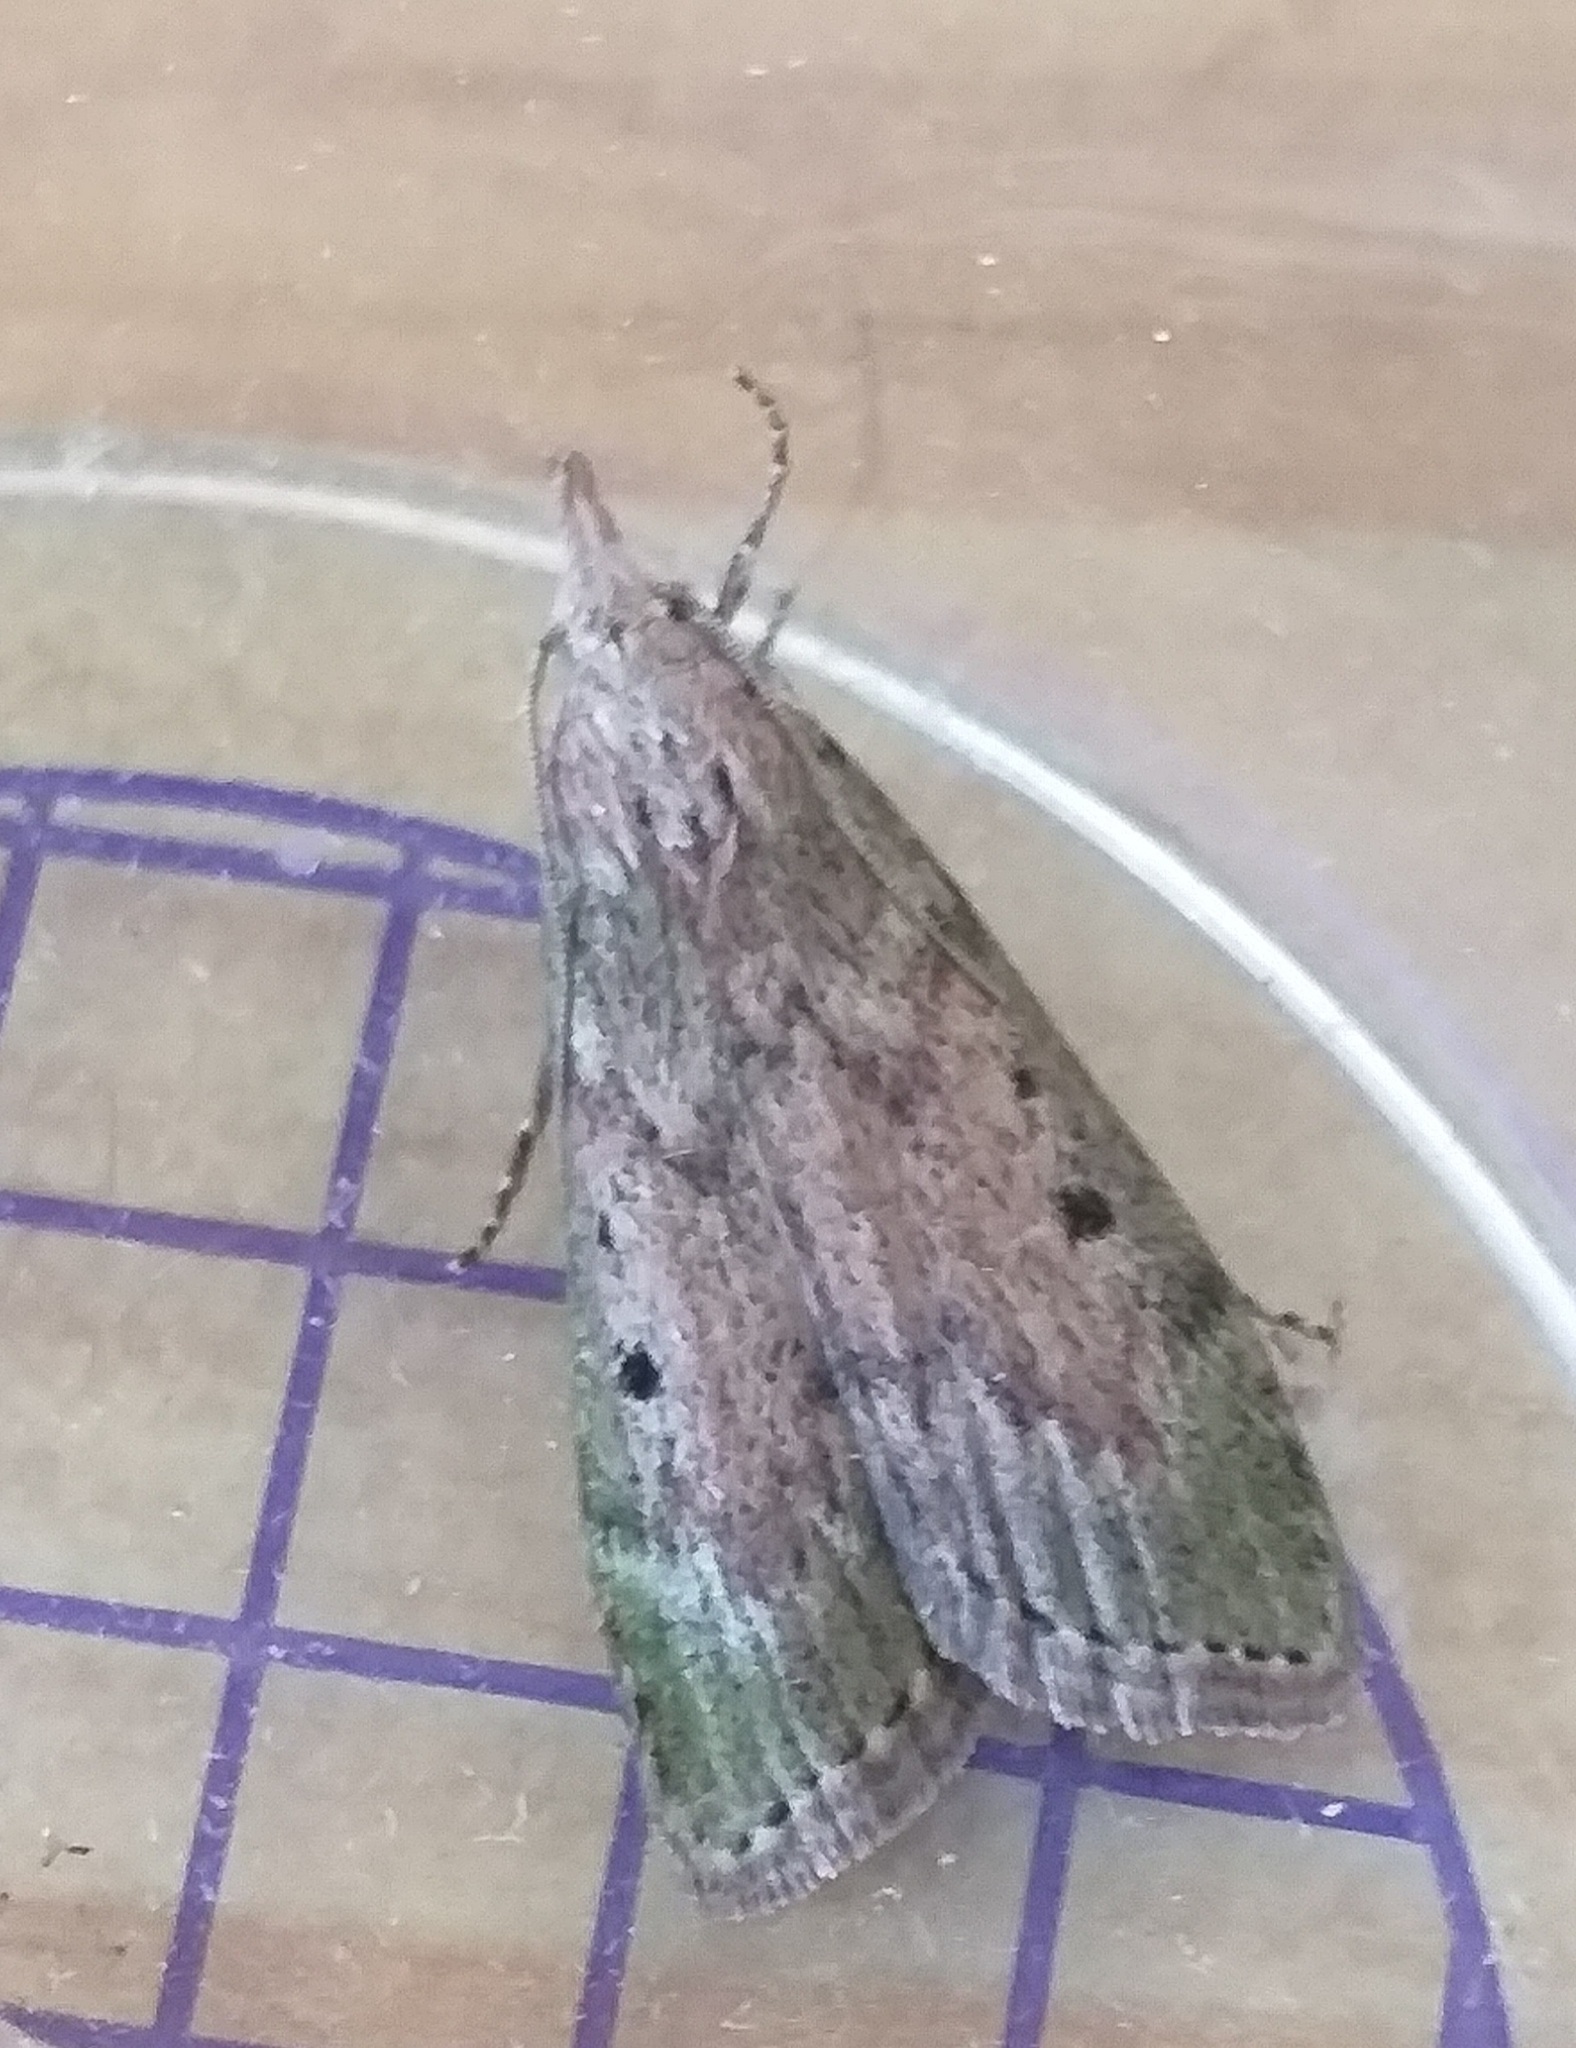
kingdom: Animalia
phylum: Arthropoda
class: Insecta
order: Lepidoptera
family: Pyralidae
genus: Aphomia
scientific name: Aphomia sociella
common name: Bee moth
